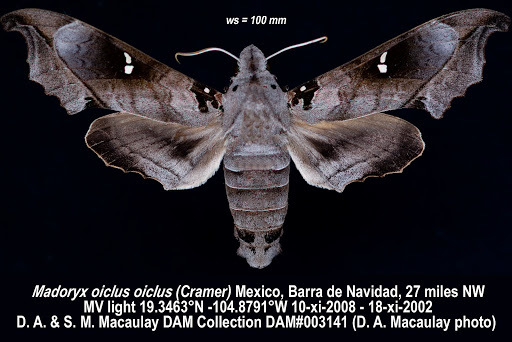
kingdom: Animalia
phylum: Arthropoda
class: Insecta
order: Lepidoptera
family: Sphingidae
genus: Madoryx
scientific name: Madoryx oiclus
